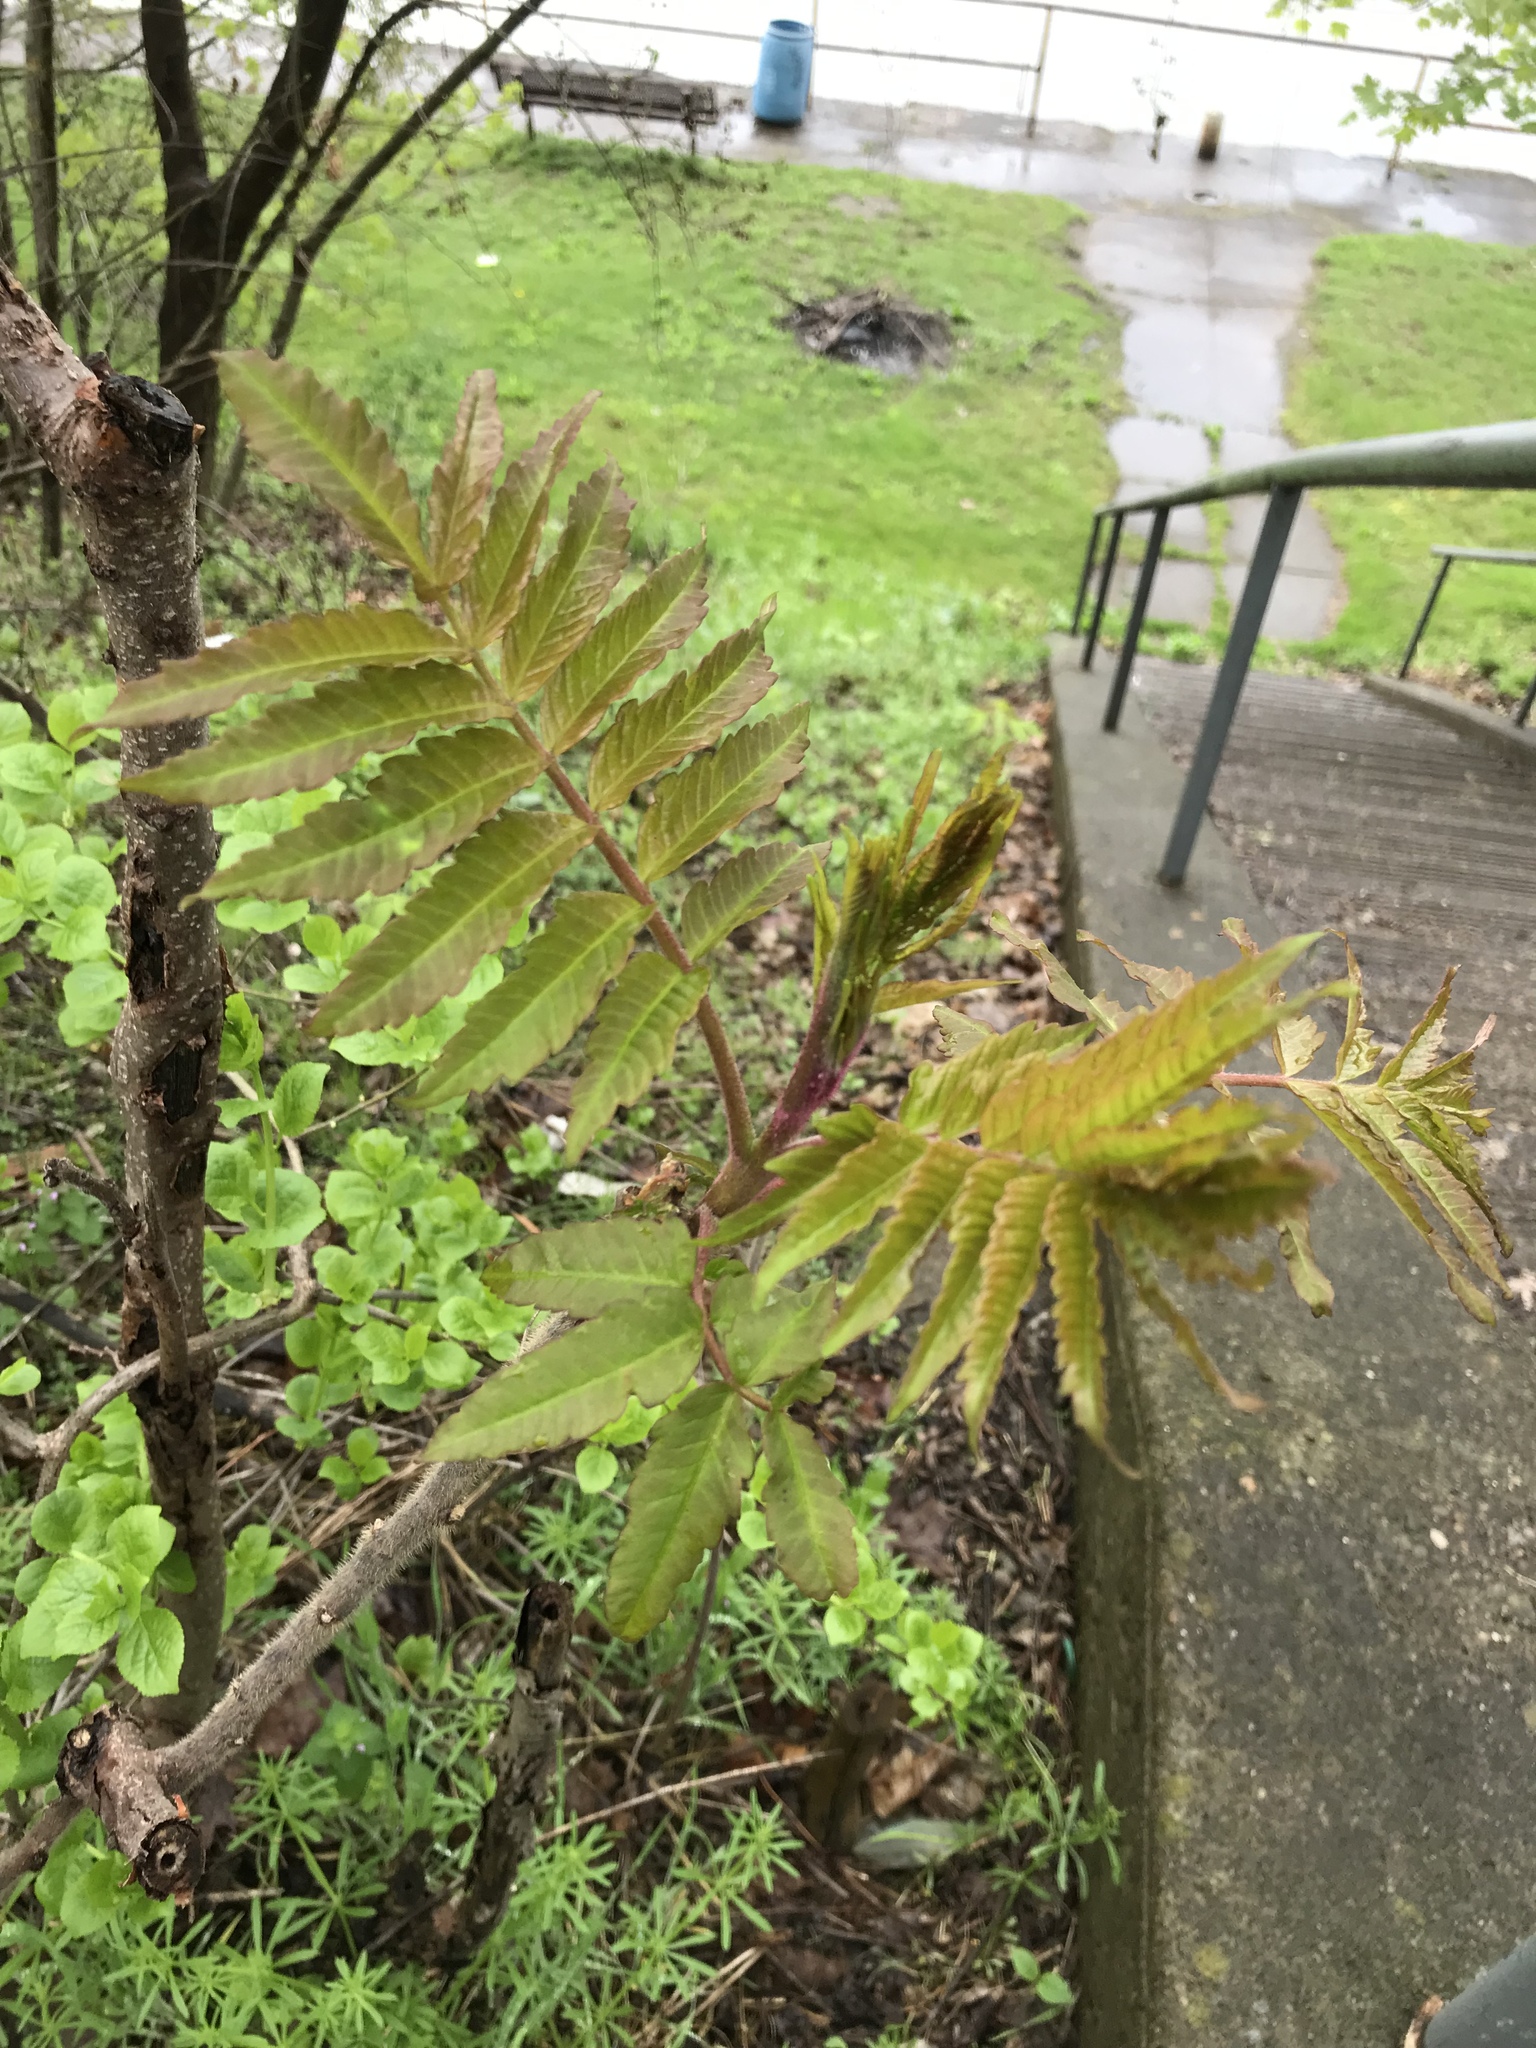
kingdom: Plantae
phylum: Tracheophyta
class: Magnoliopsida
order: Sapindales
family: Anacardiaceae
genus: Rhus
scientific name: Rhus typhina
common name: Staghorn sumac
